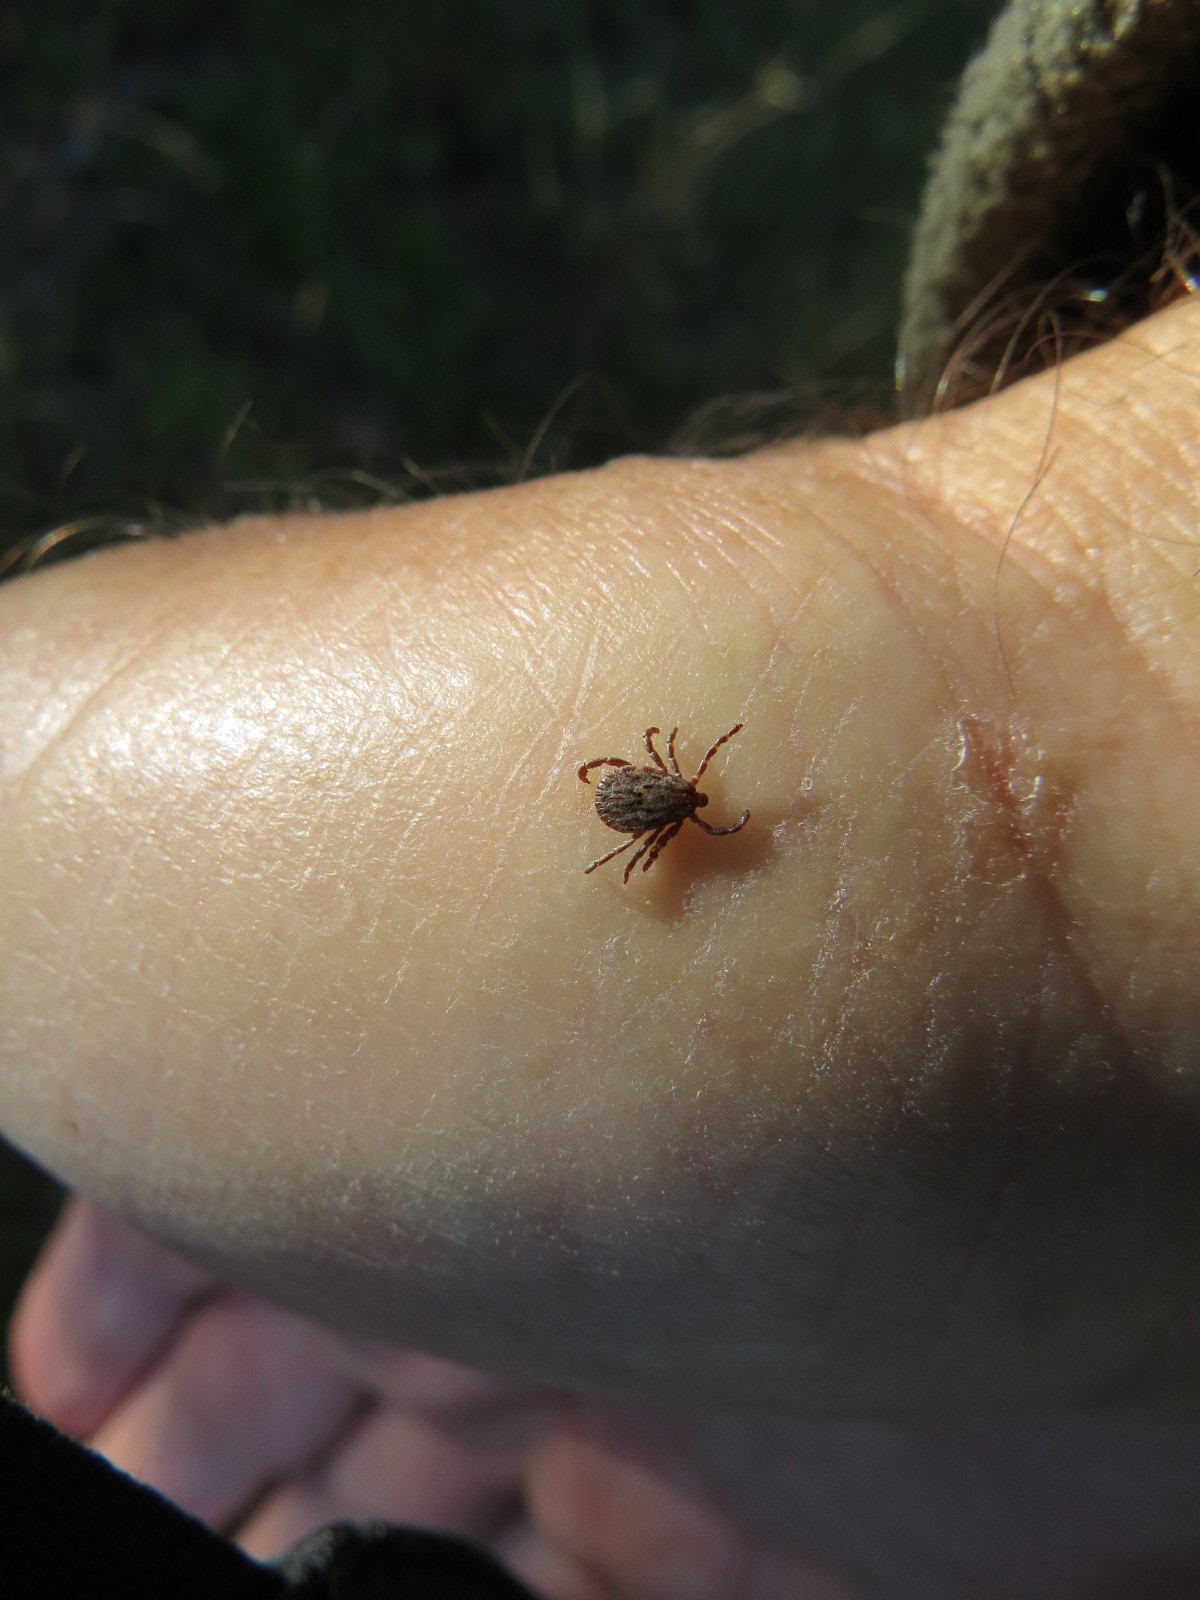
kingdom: Animalia
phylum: Arthropoda
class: Arachnida
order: Ixodida
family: Ixodidae
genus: Dermacentor
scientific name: Dermacentor occidentalis
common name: Net tick
